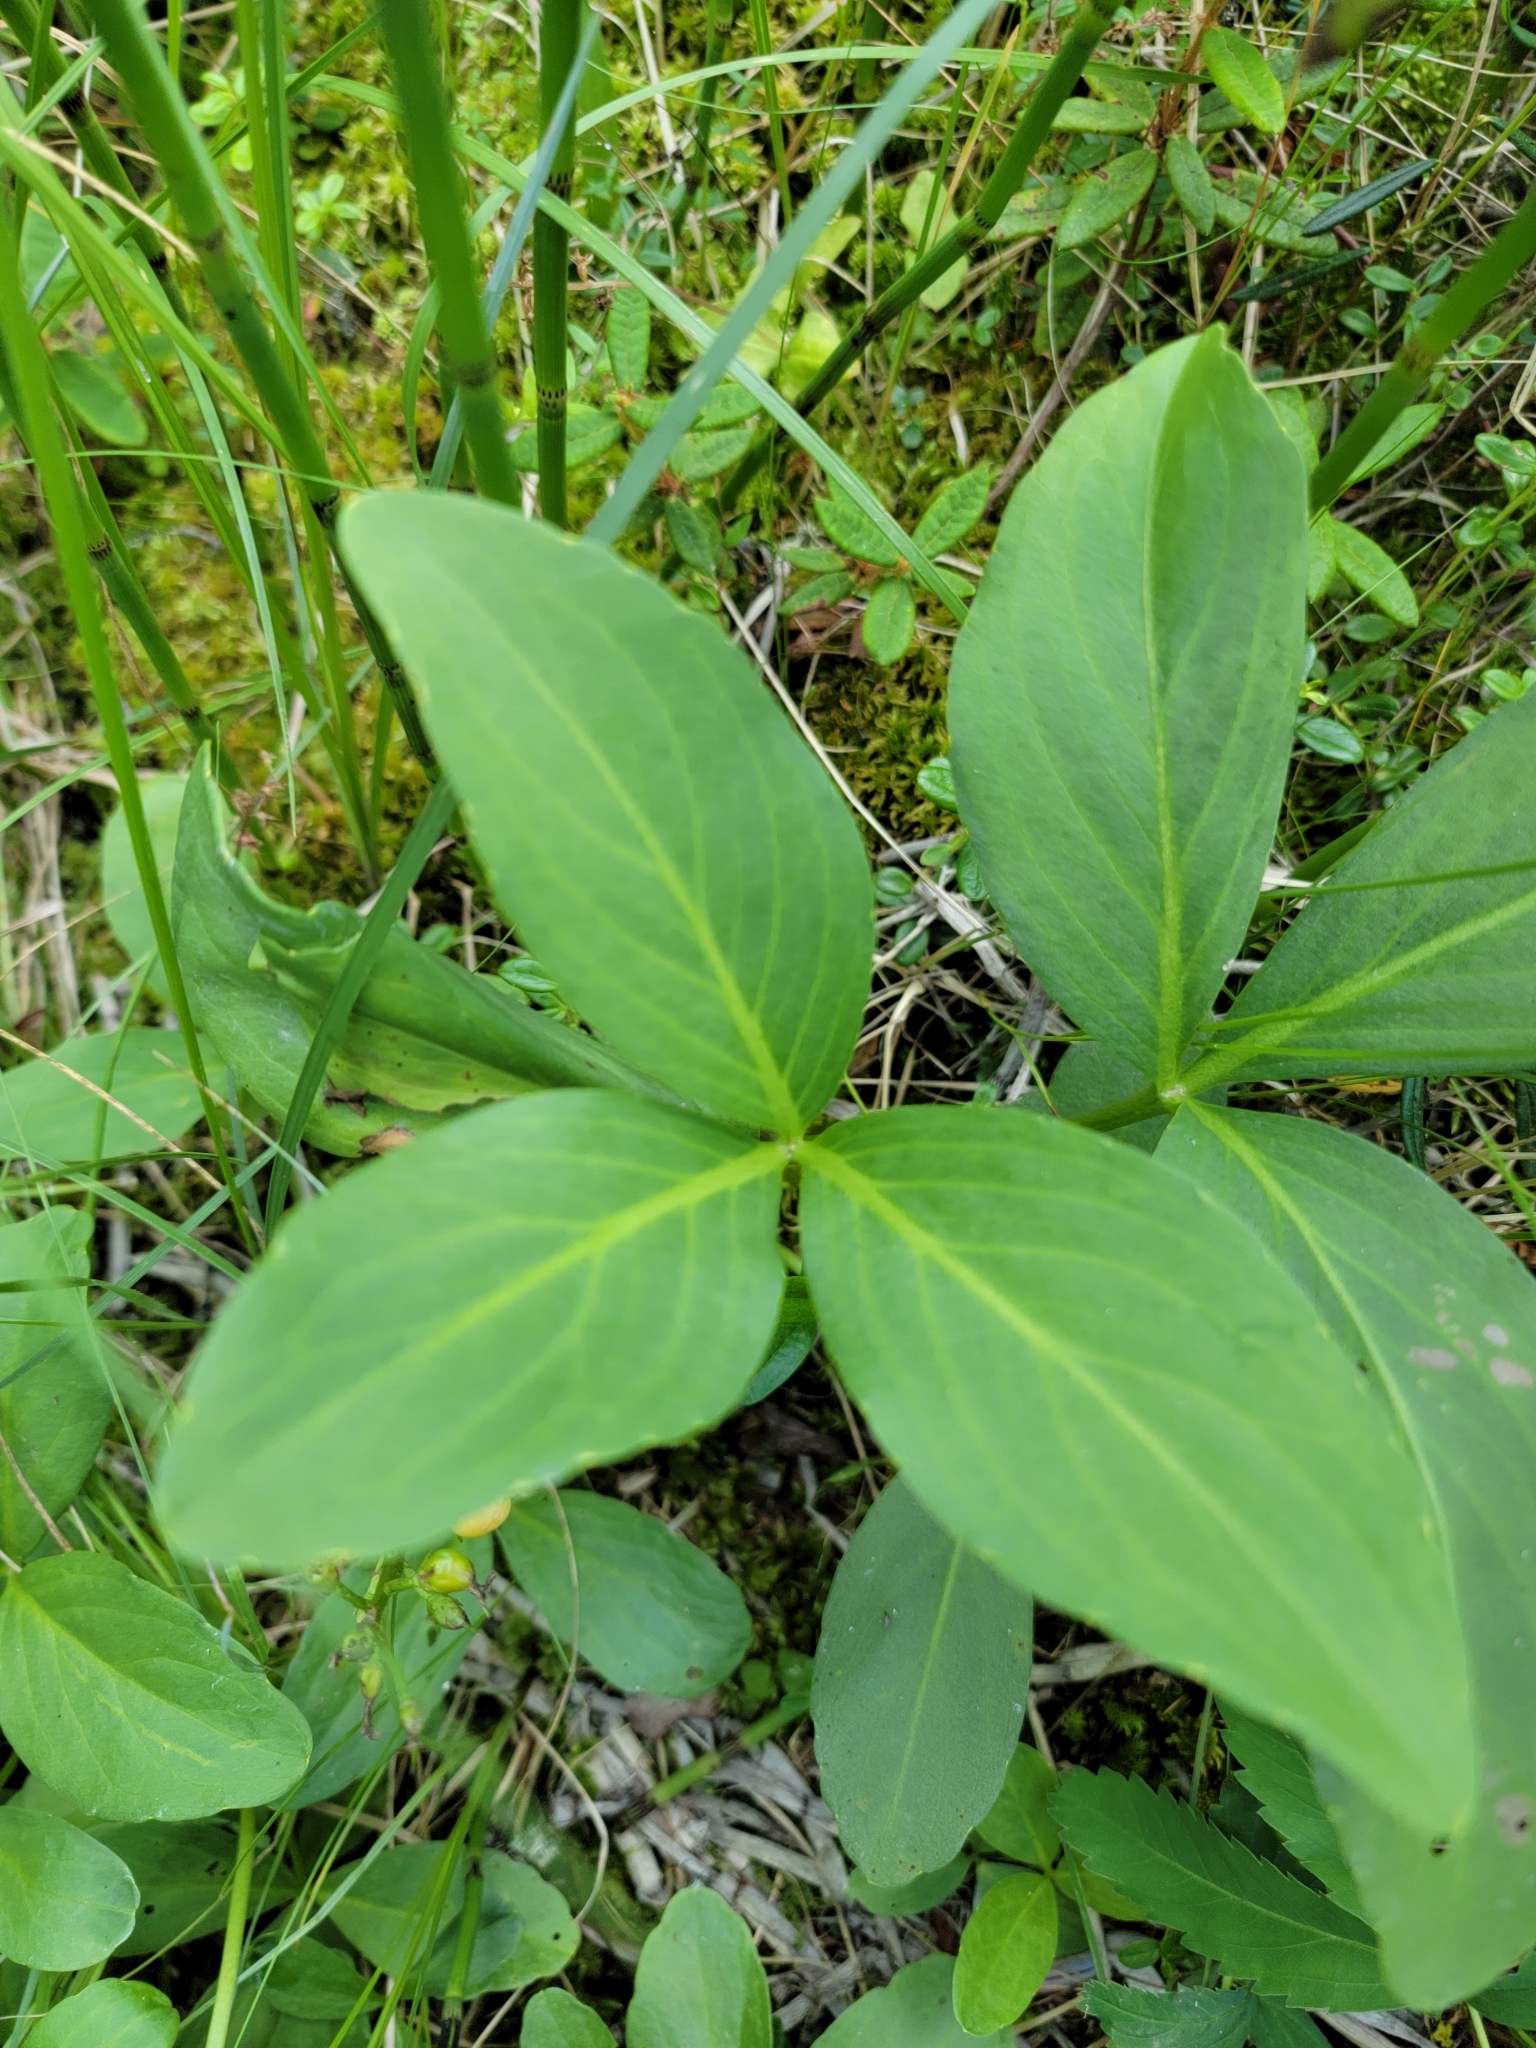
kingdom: Plantae
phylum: Tracheophyta
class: Magnoliopsida
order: Asterales
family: Menyanthaceae
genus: Menyanthes
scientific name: Menyanthes trifoliata
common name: Bogbean
